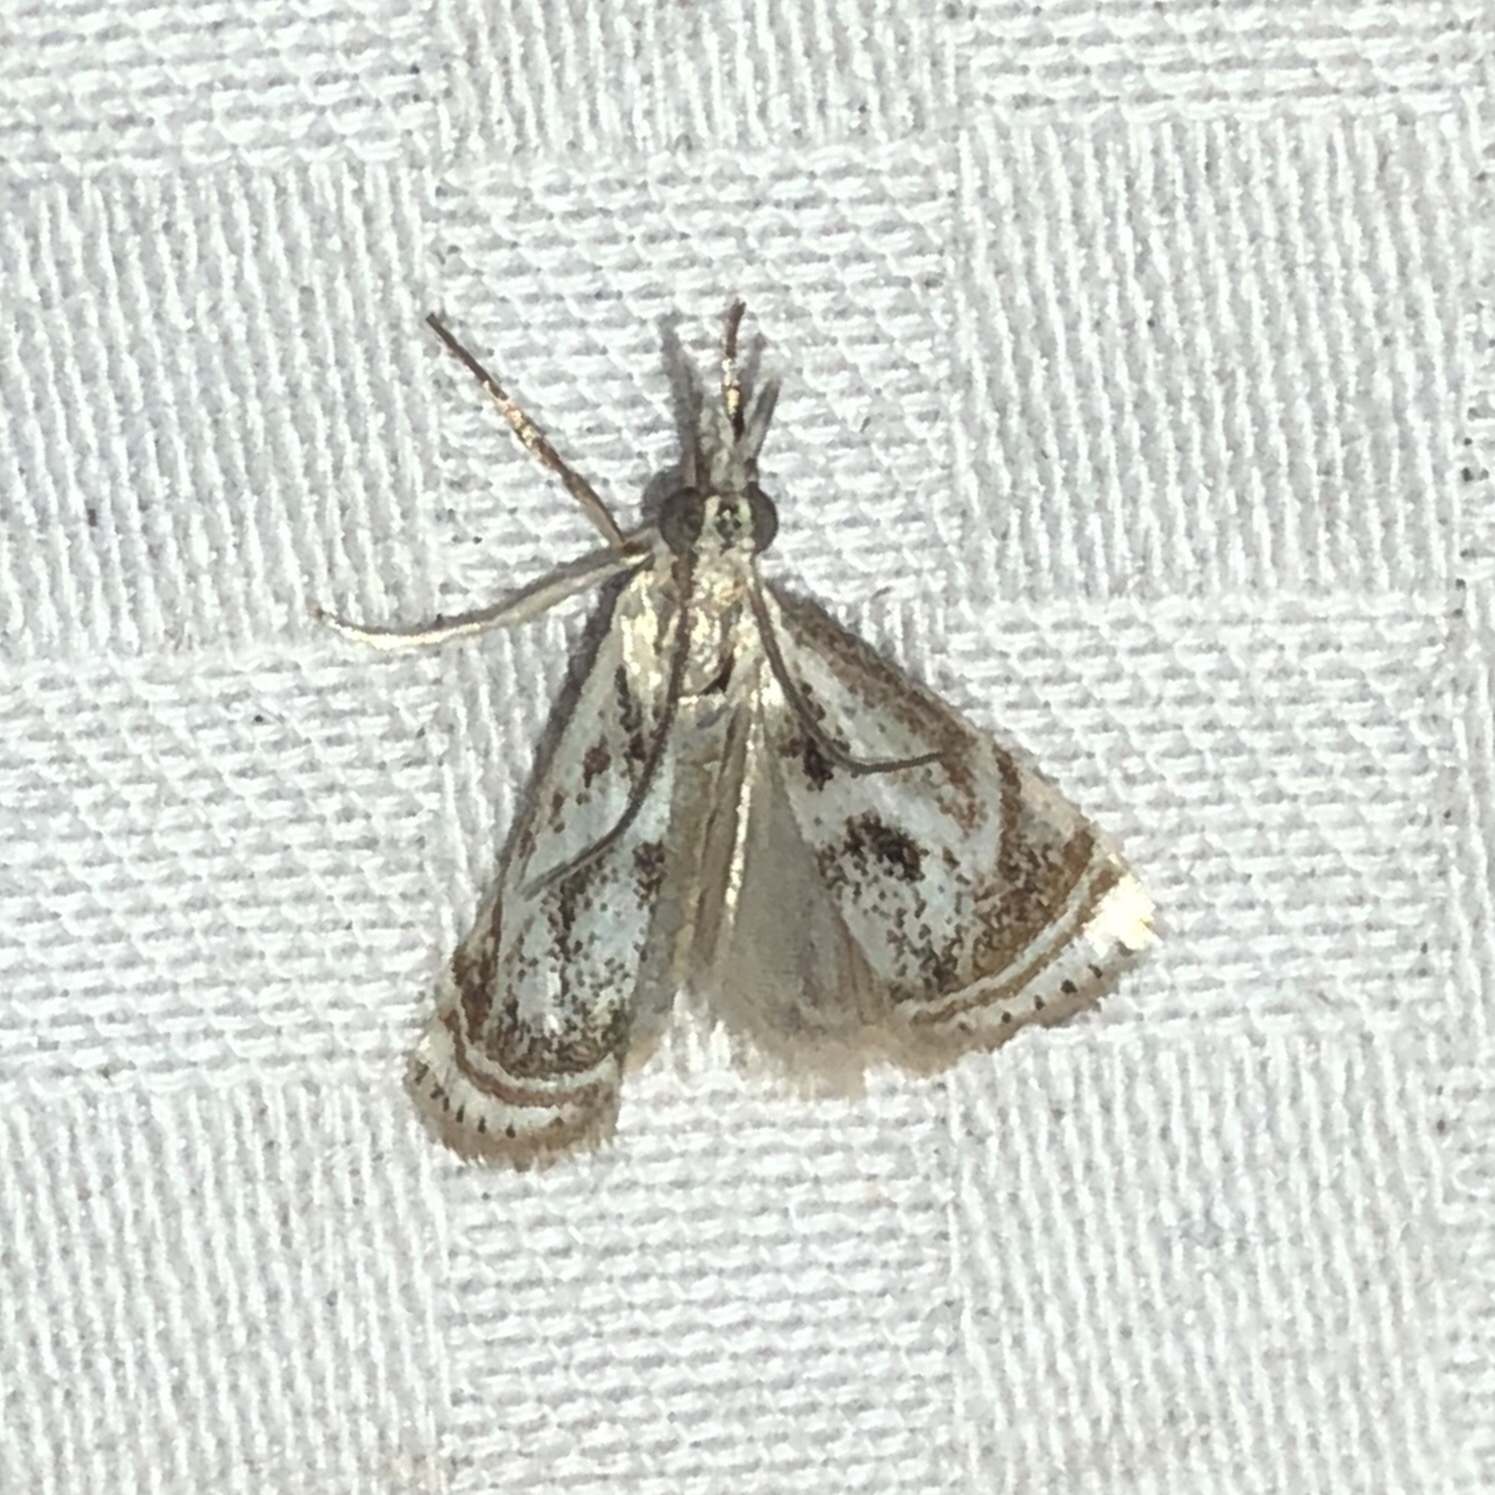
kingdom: Animalia
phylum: Arthropoda
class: Insecta
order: Lepidoptera
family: Crambidae
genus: Microcrambus
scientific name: Microcrambus elegans
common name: Elegant grass-veneer
